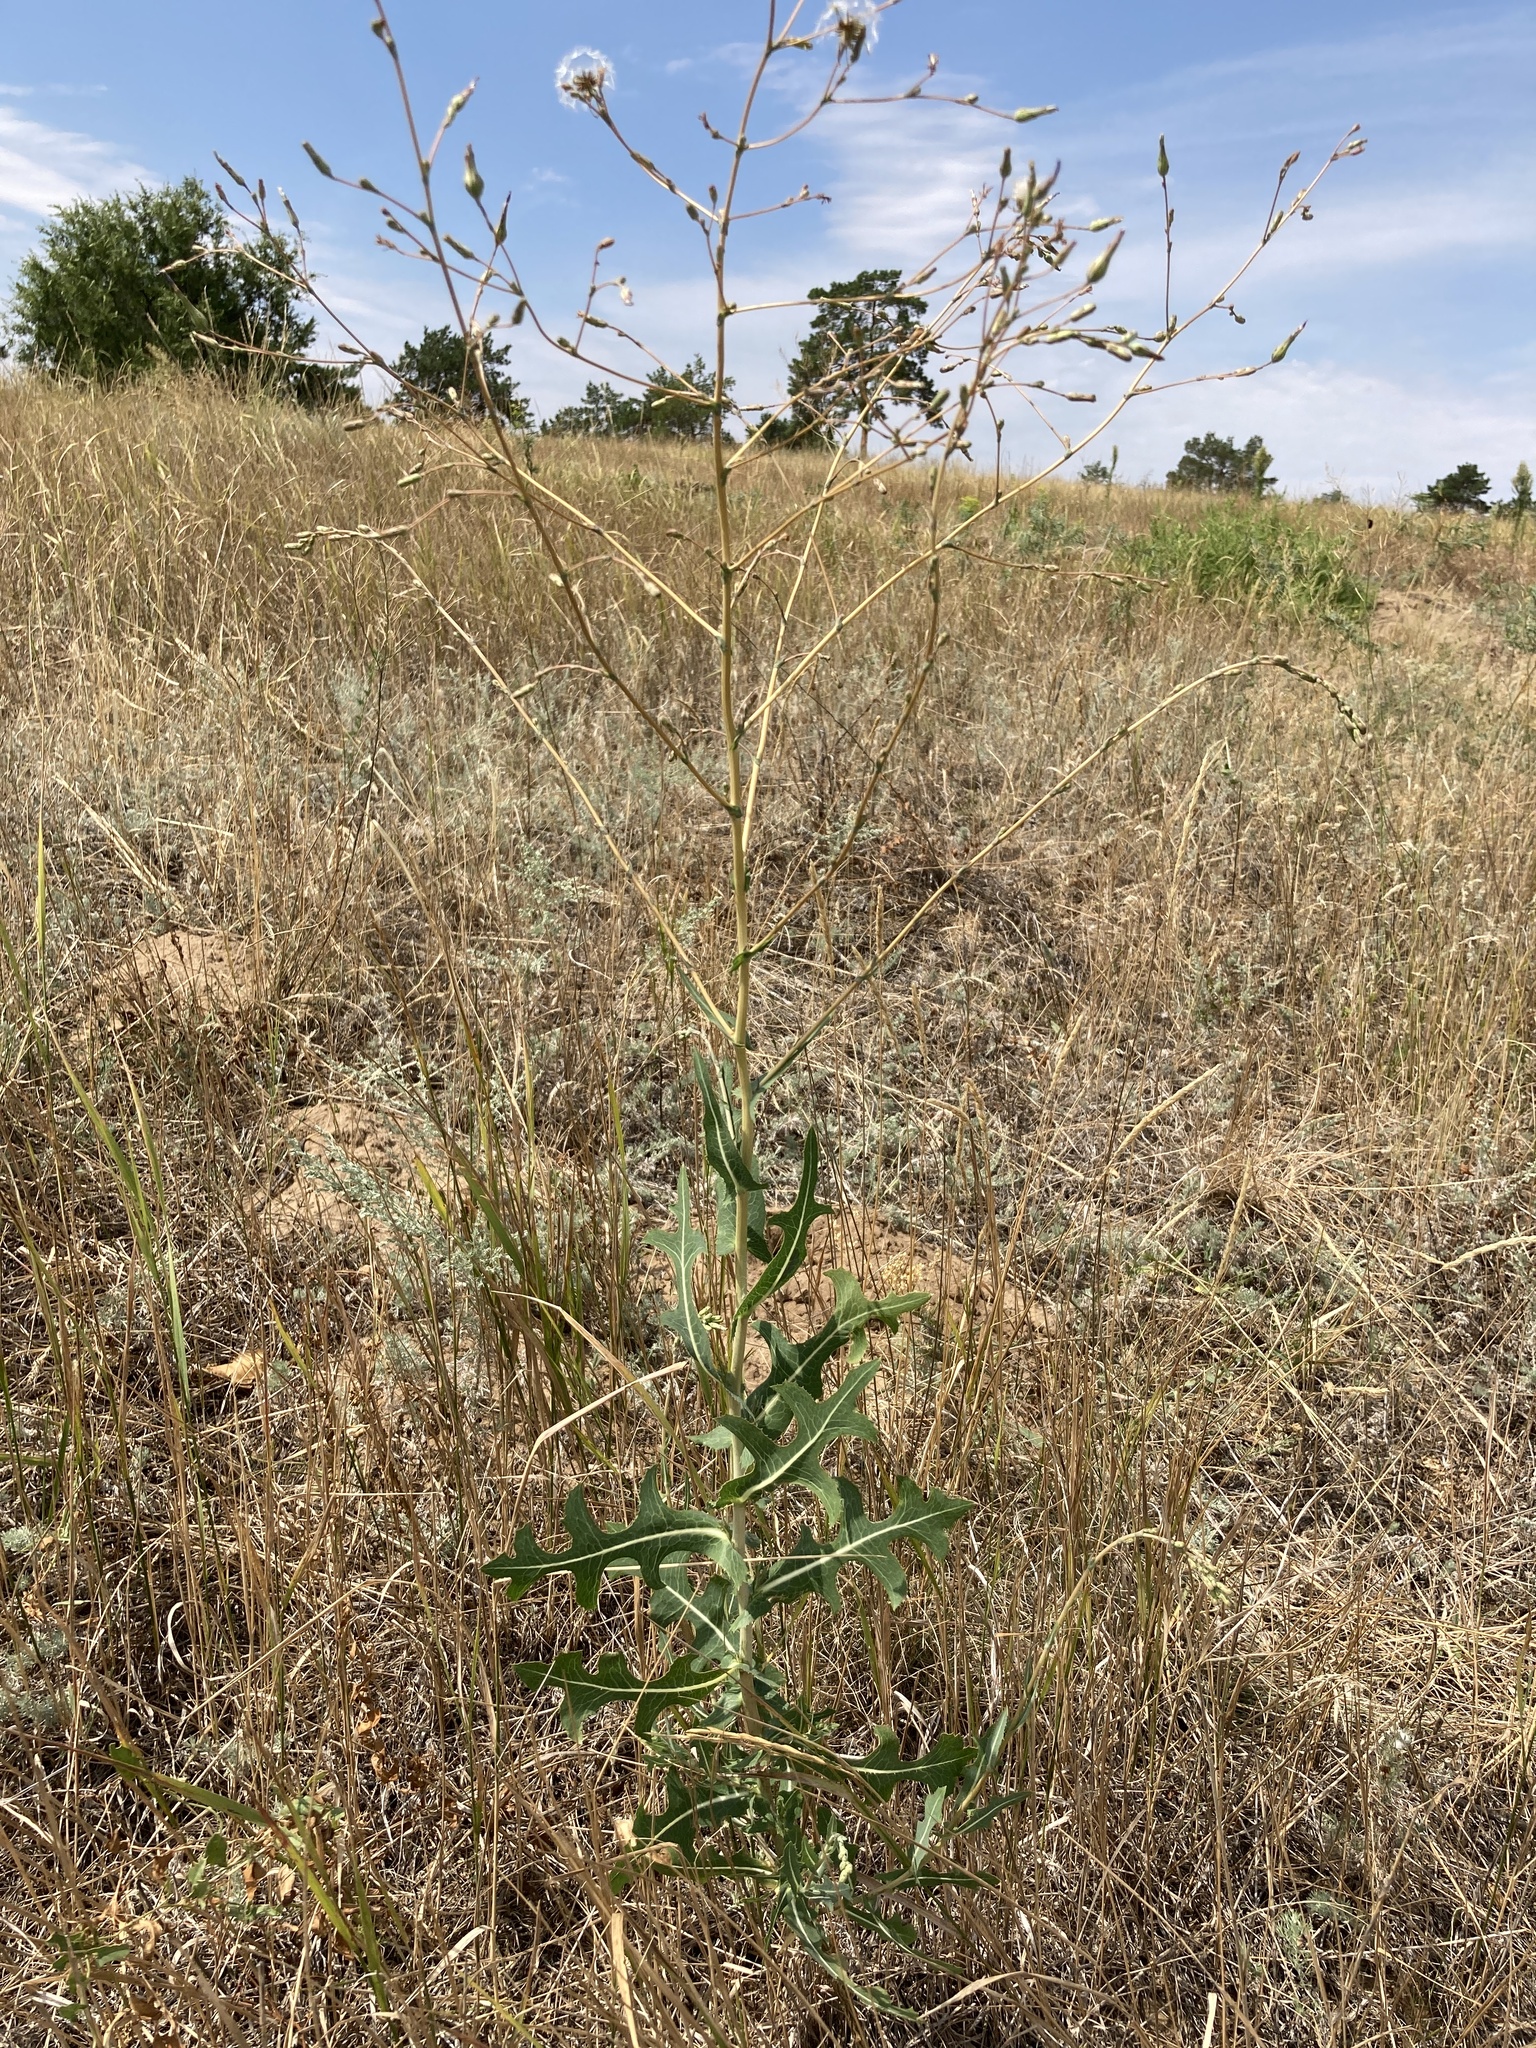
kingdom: Plantae
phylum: Tracheophyta
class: Magnoliopsida
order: Asterales
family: Asteraceae
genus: Lactuca
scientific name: Lactuca serriola
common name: Prickly lettuce
